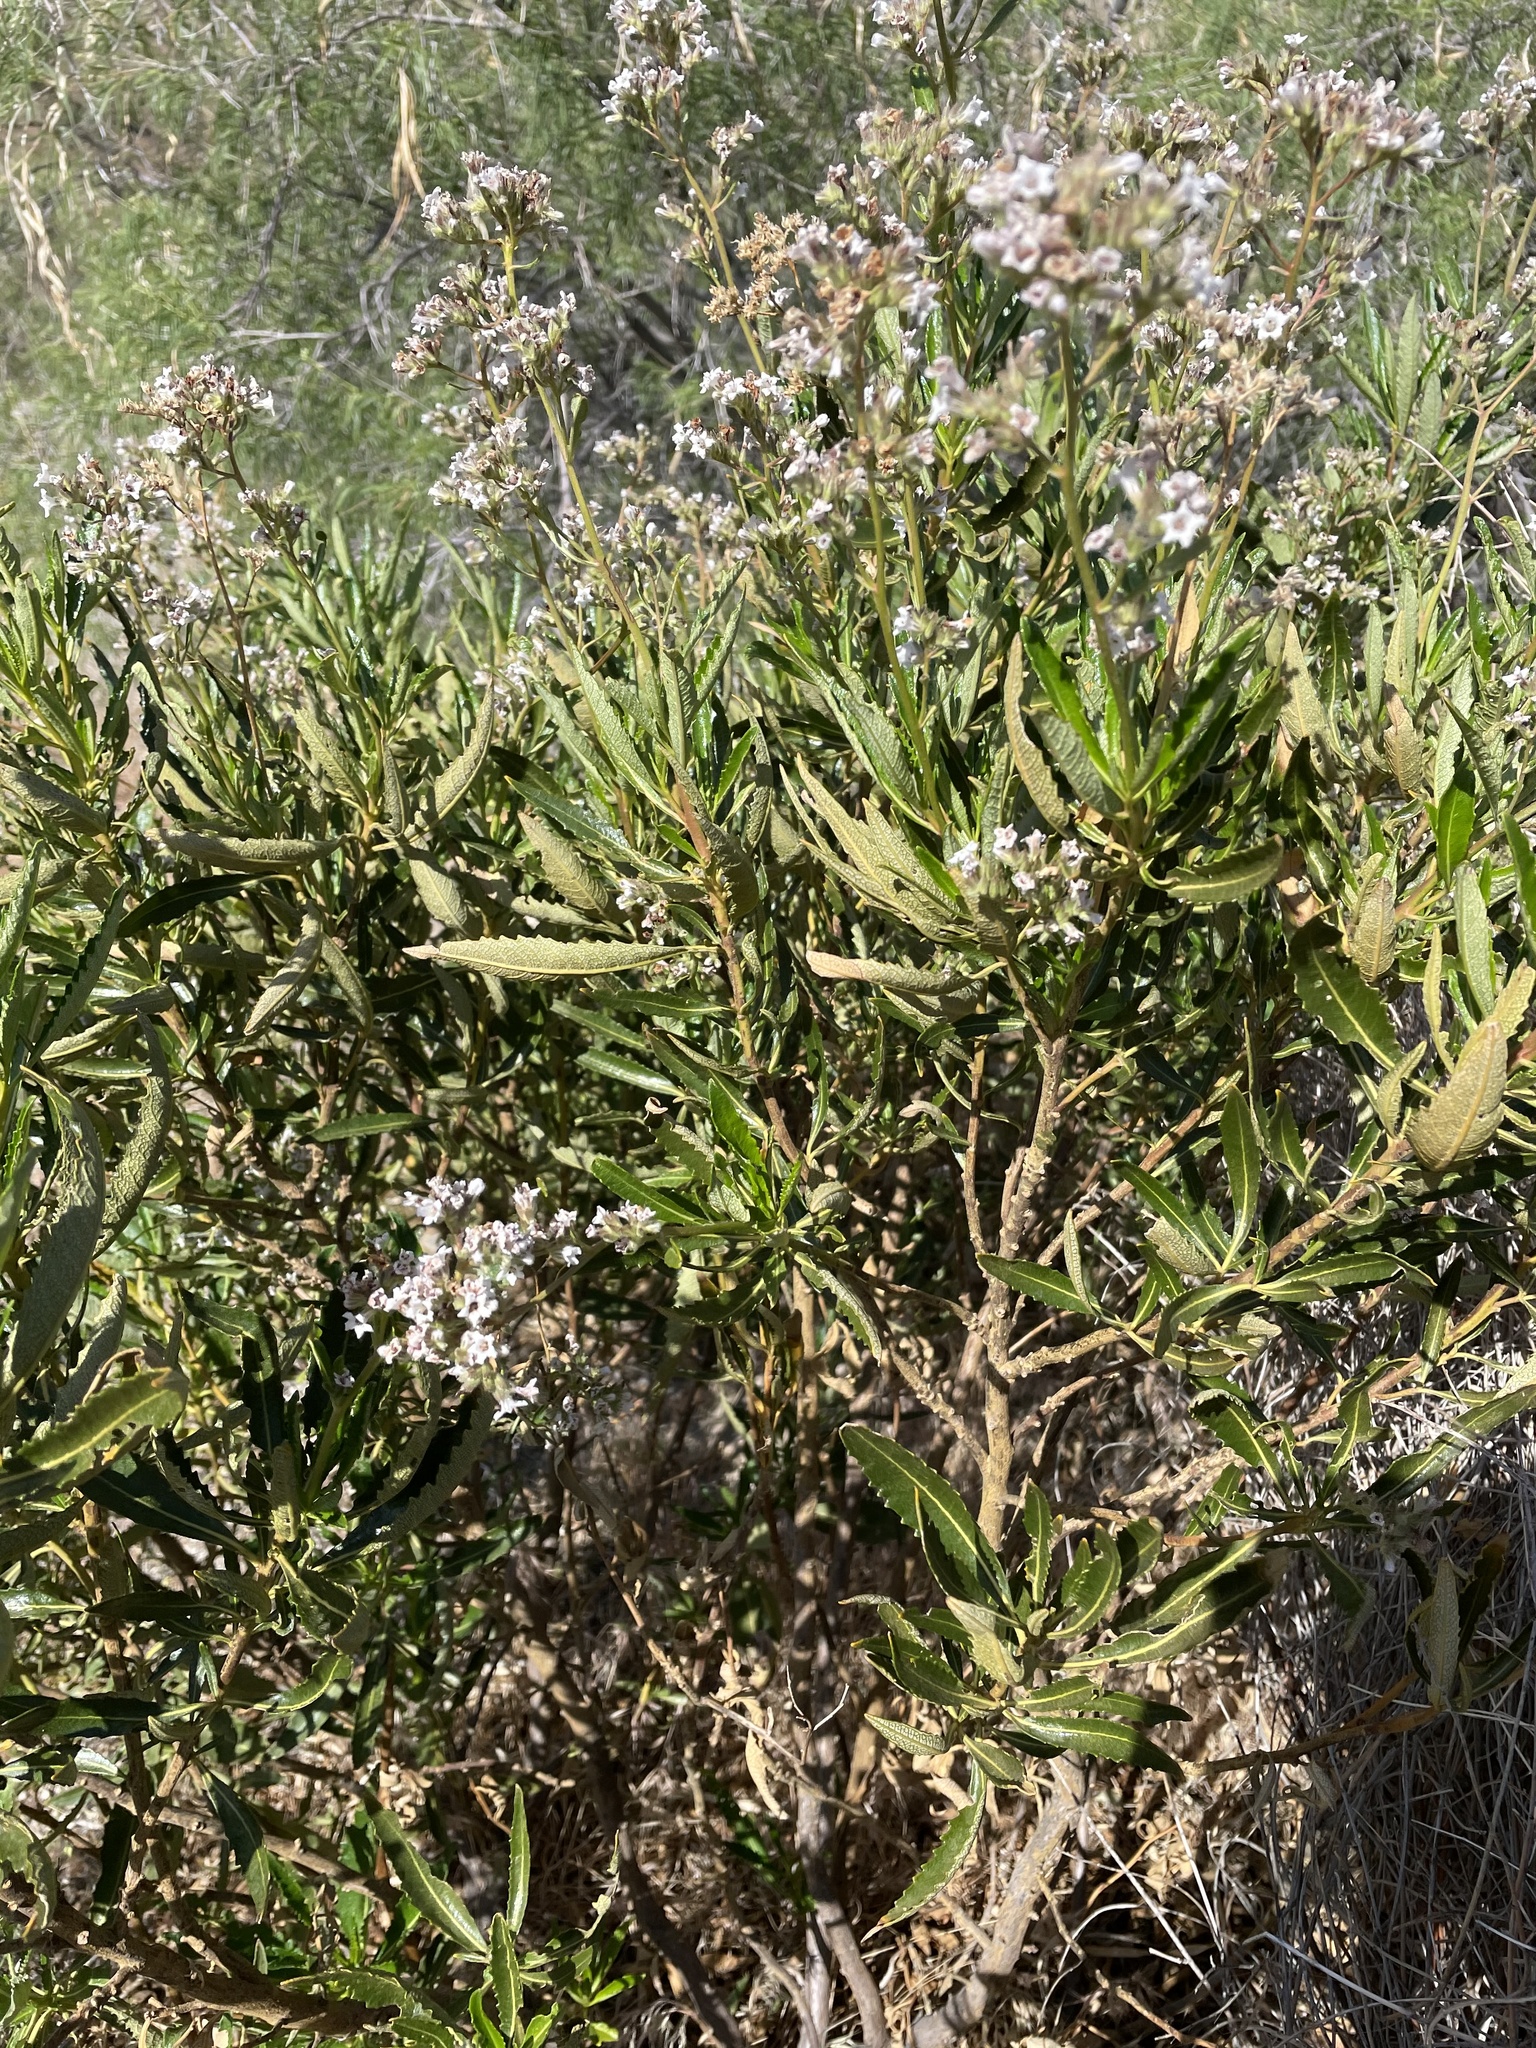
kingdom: Plantae
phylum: Tracheophyta
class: Magnoliopsida
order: Boraginales
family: Namaceae
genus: Eriodictyon
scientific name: Eriodictyon trichocalyx
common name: Hairy yerba-santa
